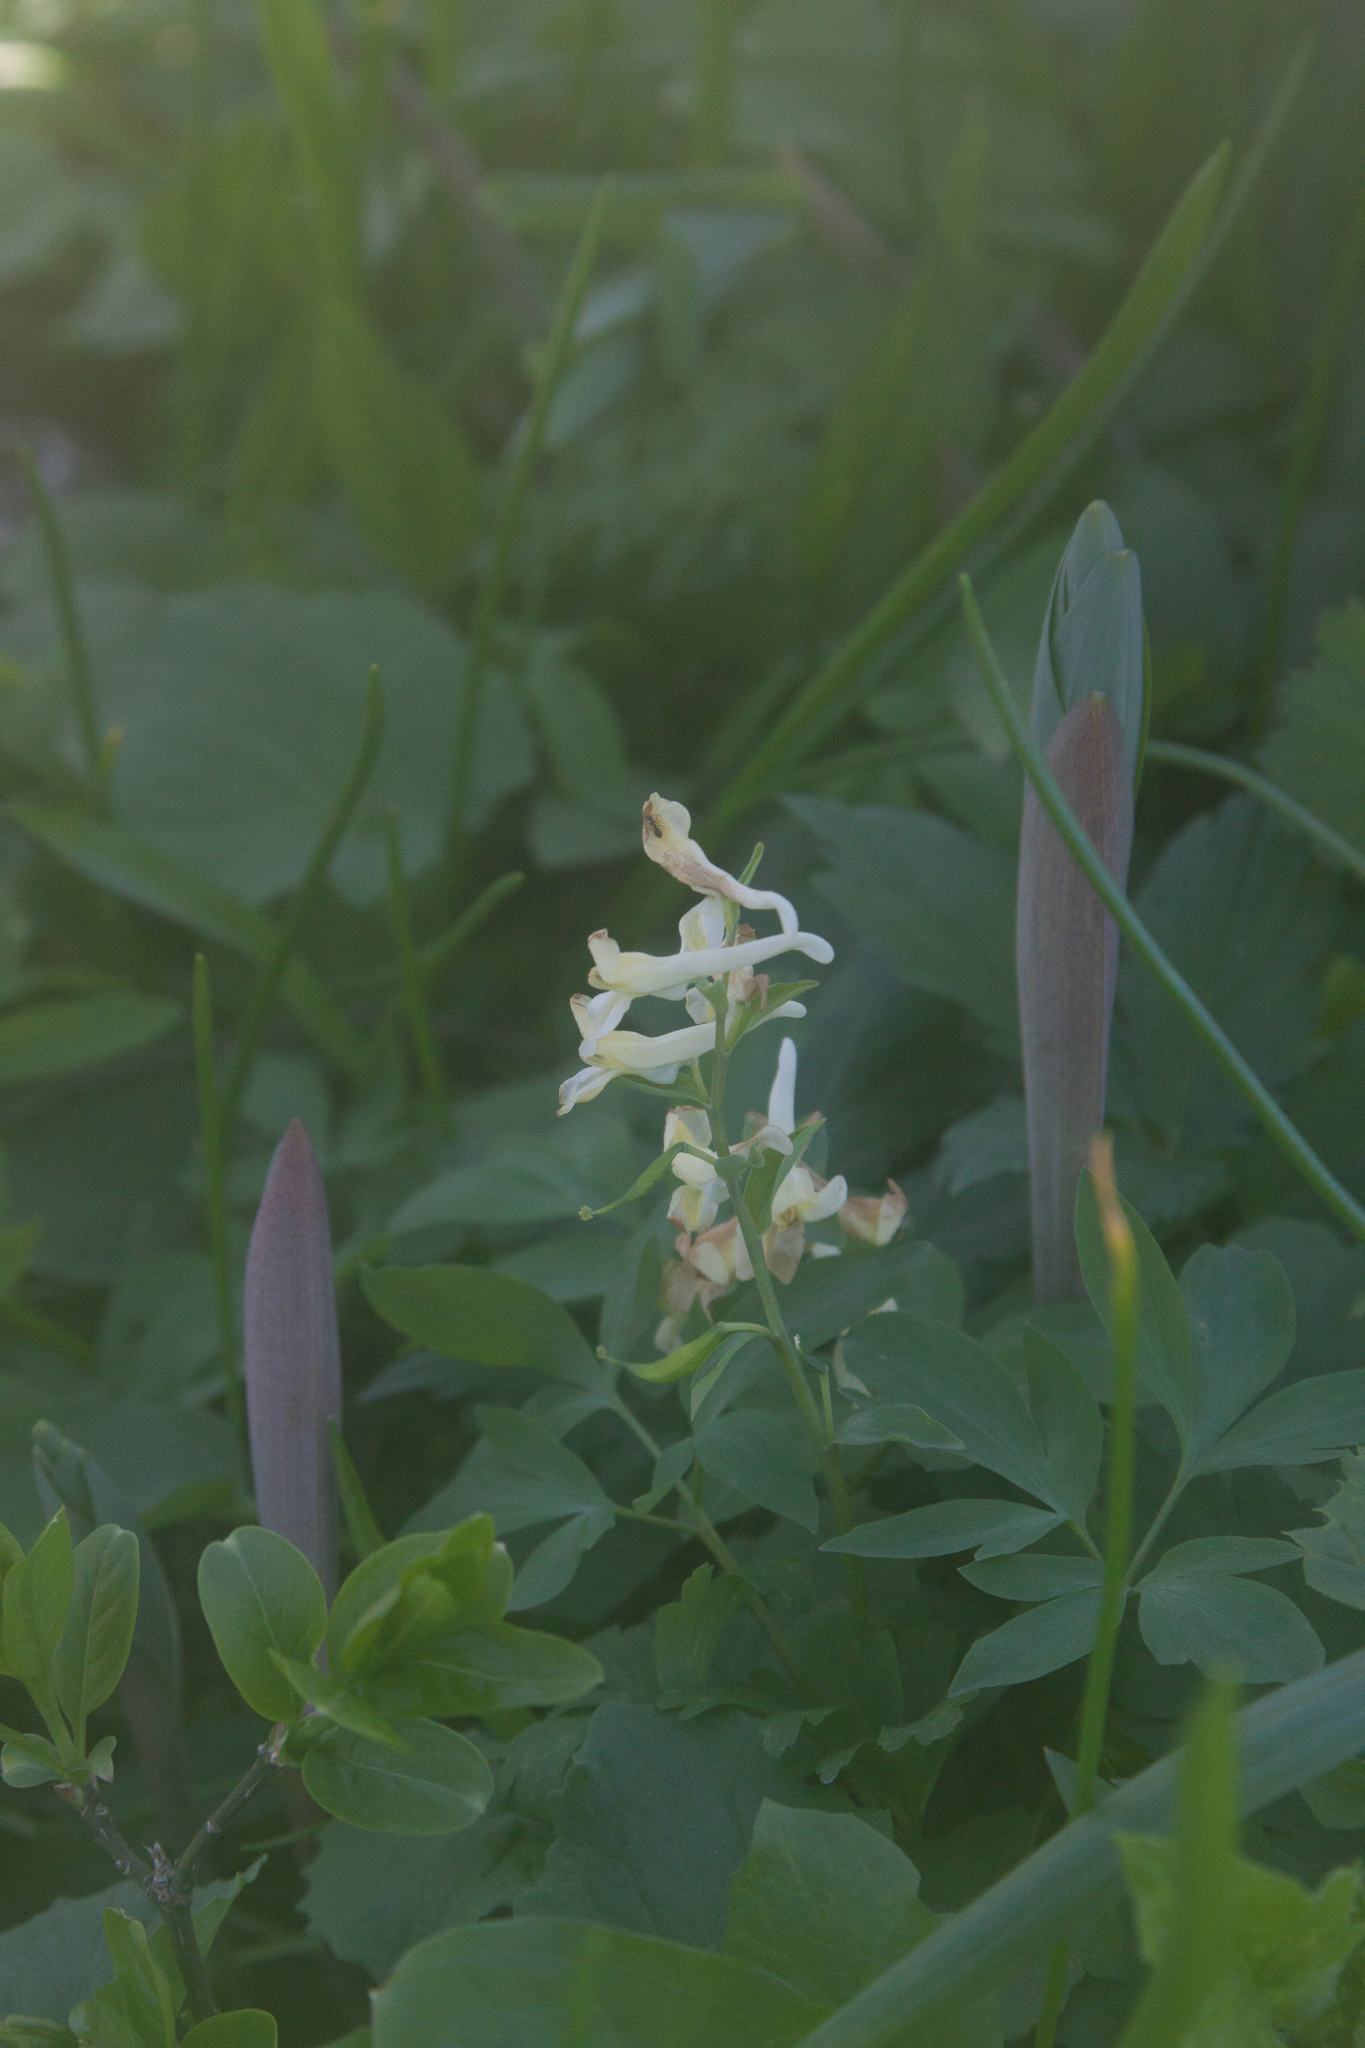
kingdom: Plantae
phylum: Tracheophyta
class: Magnoliopsida
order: Ranunculales
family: Papaveraceae
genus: Corydalis
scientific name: Corydalis cava
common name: Hollowroot
